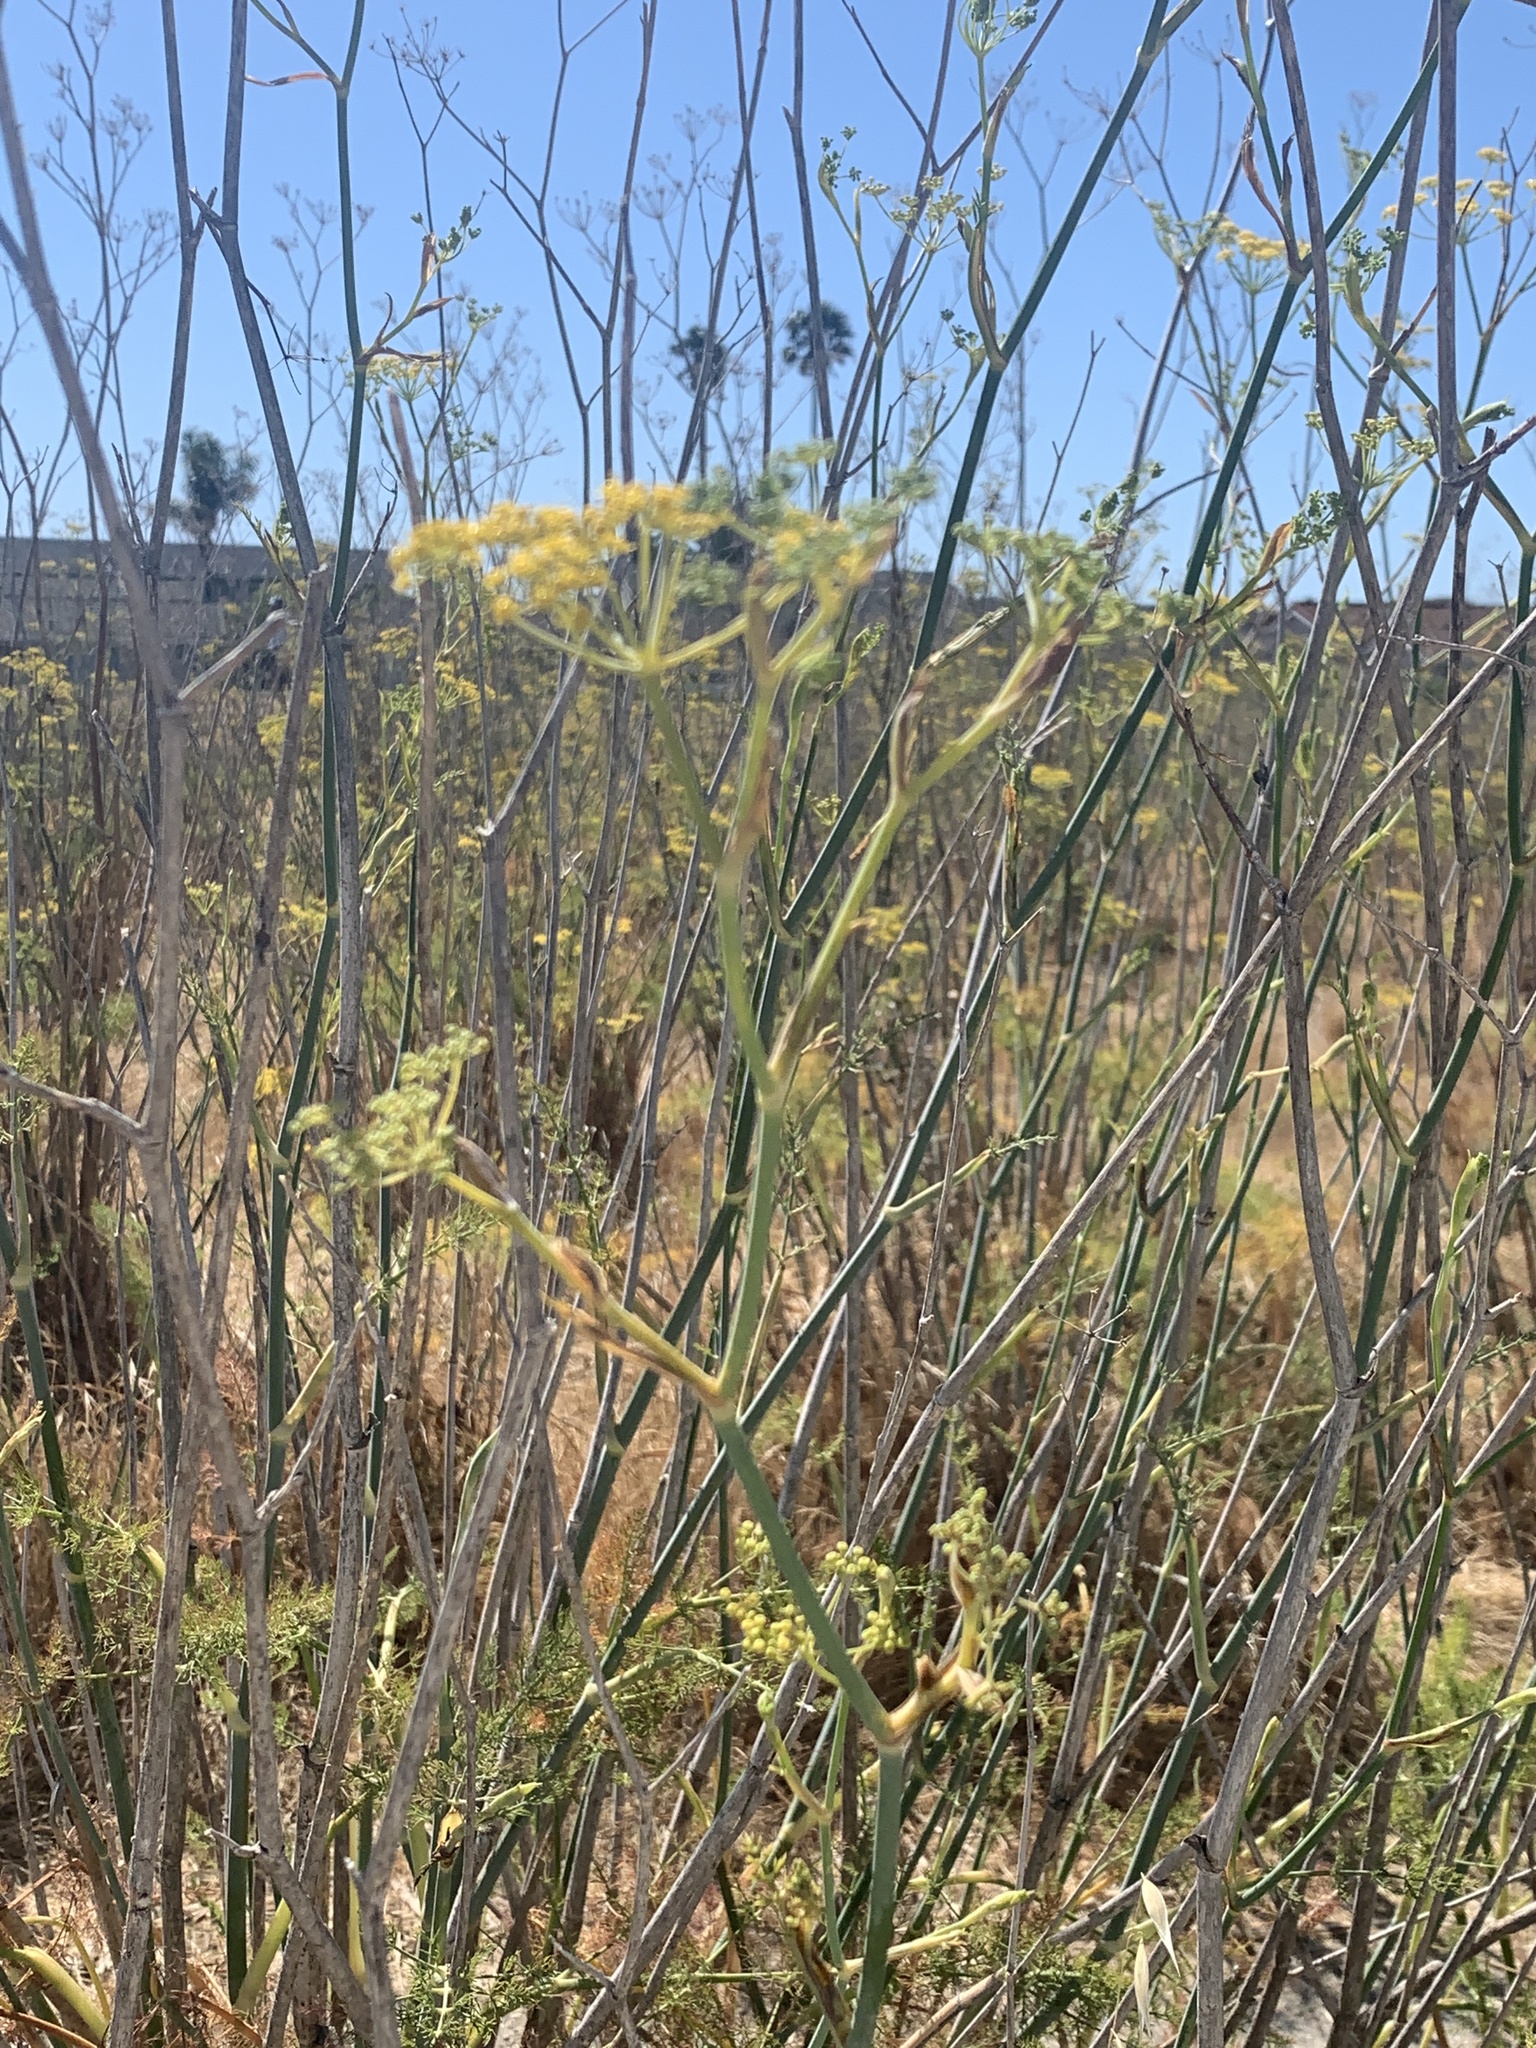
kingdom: Plantae
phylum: Tracheophyta
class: Magnoliopsida
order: Apiales
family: Apiaceae
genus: Foeniculum
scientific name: Foeniculum vulgare
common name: Fennel
